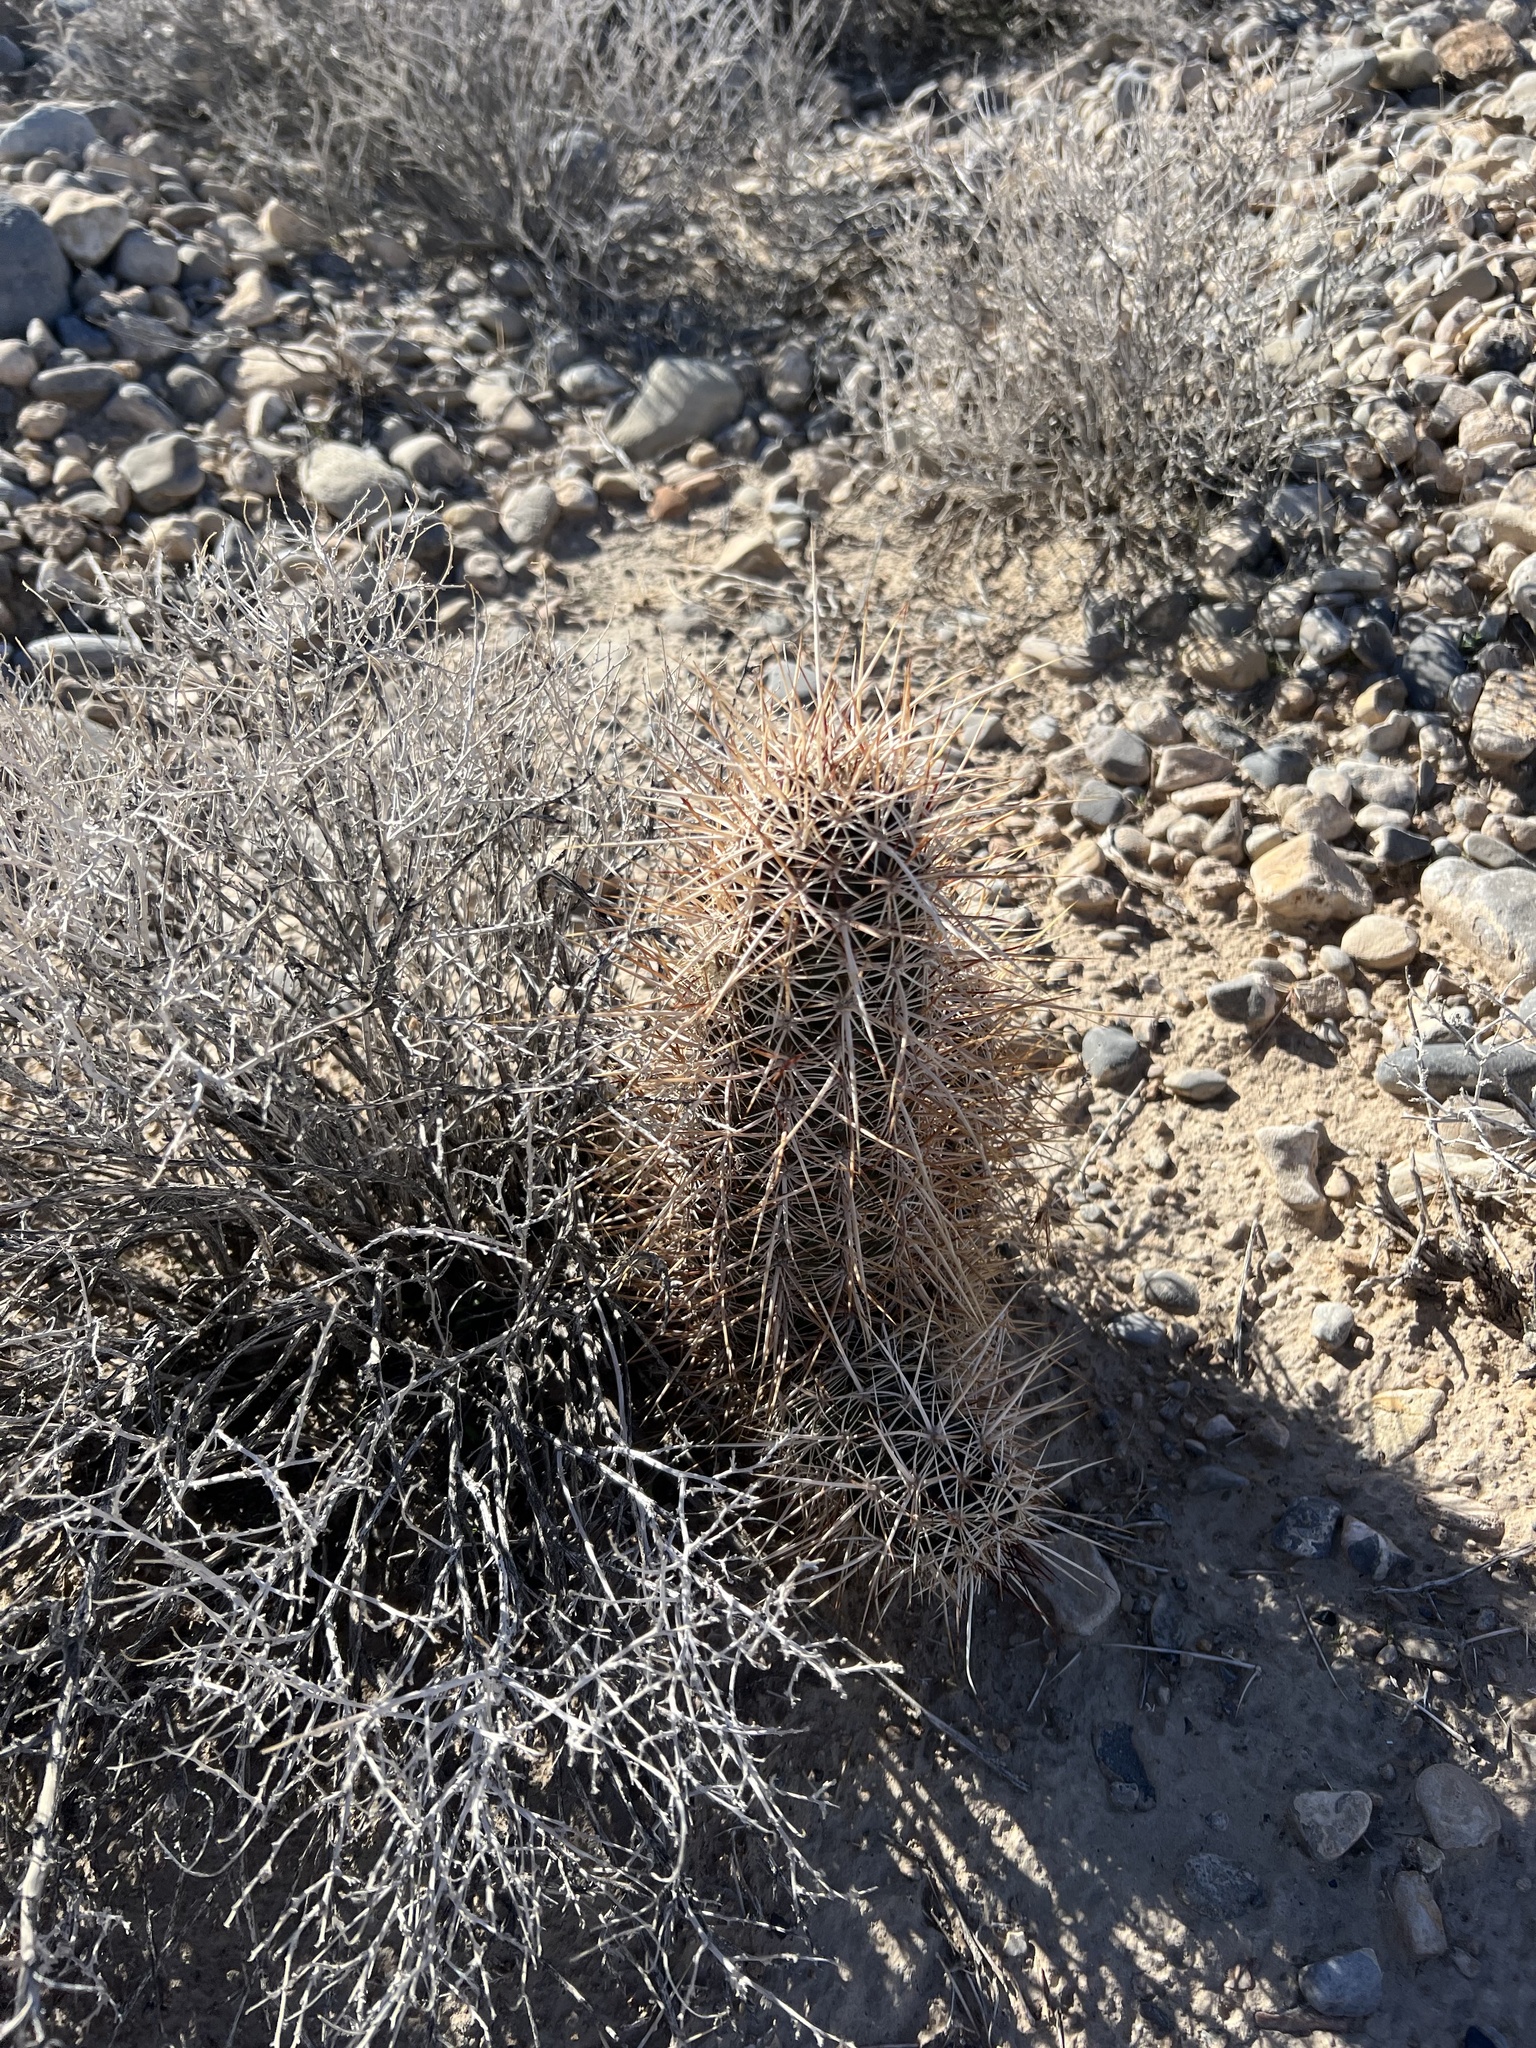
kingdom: Plantae
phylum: Tracheophyta
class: Magnoliopsida
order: Caryophyllales
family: Cactaceae
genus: Echinocereus
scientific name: Echinocereus engelmannii
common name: Engelmann's hedgehog cactus
